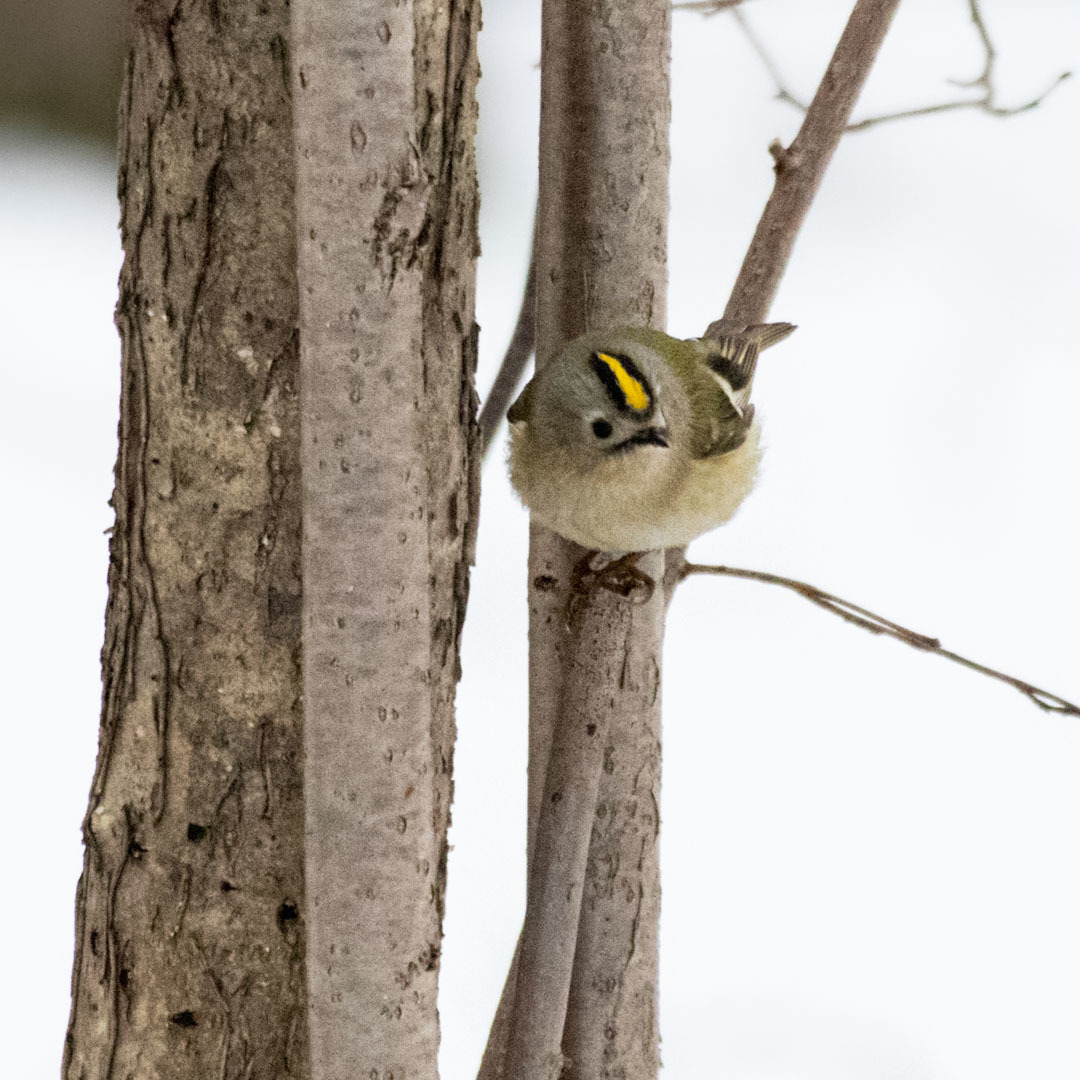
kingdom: Animalia
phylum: Chordata
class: Aves
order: Passeriformes
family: Regulidae
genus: Regulus
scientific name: Regulus regulus
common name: Goldcrest
